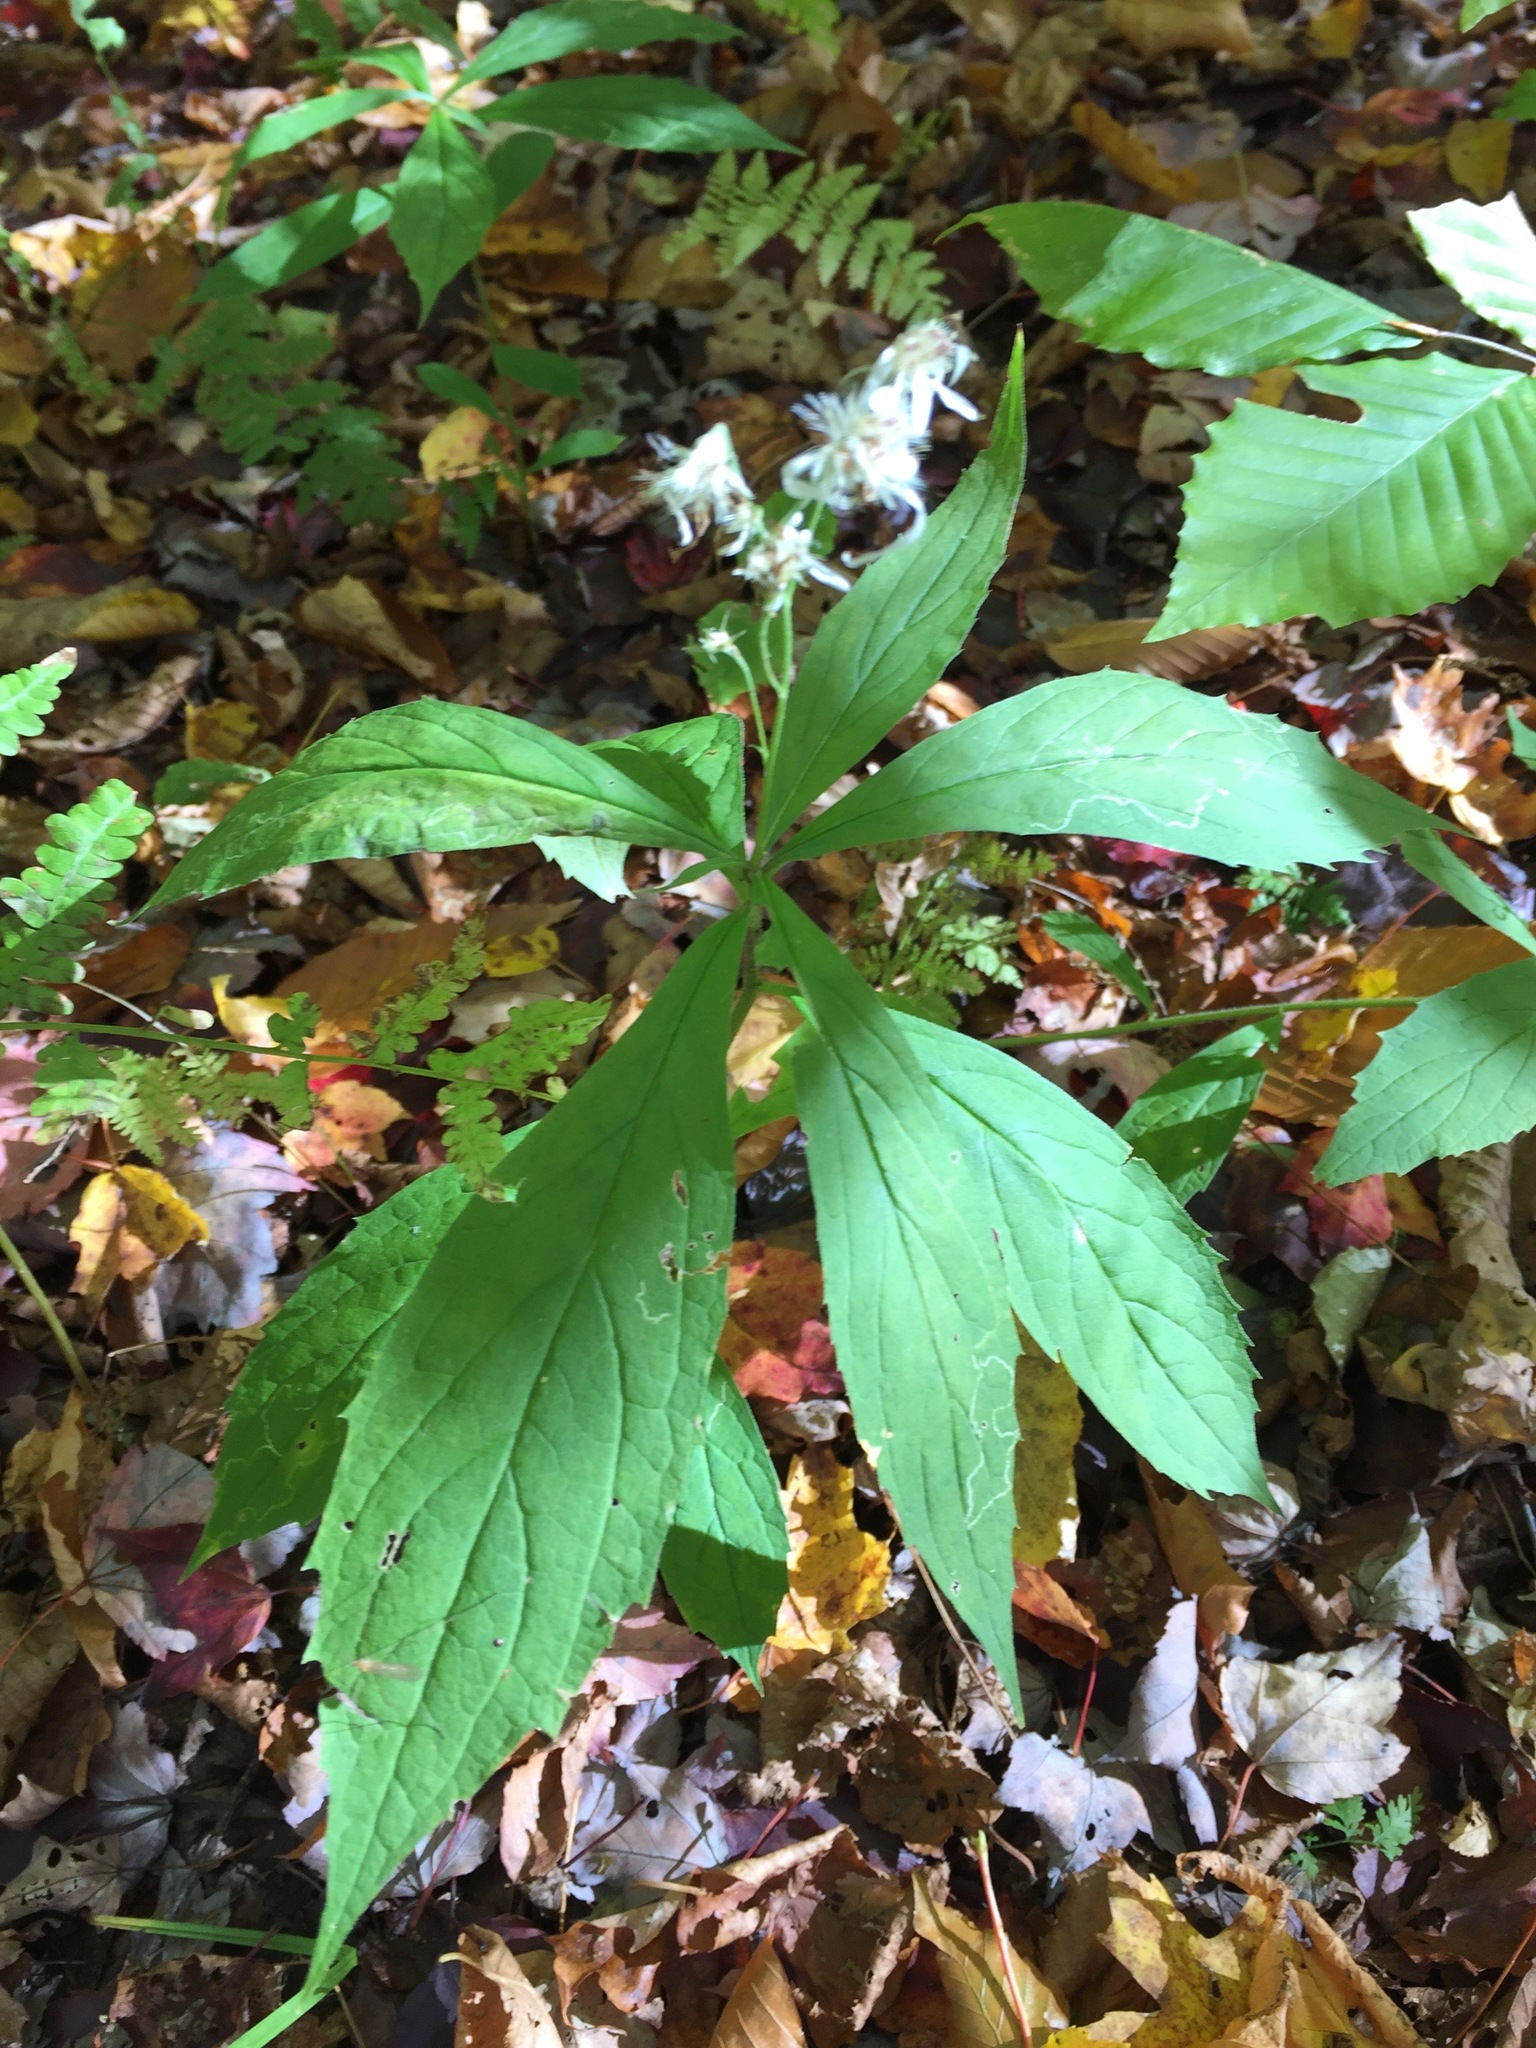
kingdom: Plantae
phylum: Tracheophyta
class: Magnoliopsida
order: Asterales
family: Asteraceae
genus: Oclemena
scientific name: Oclemena acuminata
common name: Mountain aster
